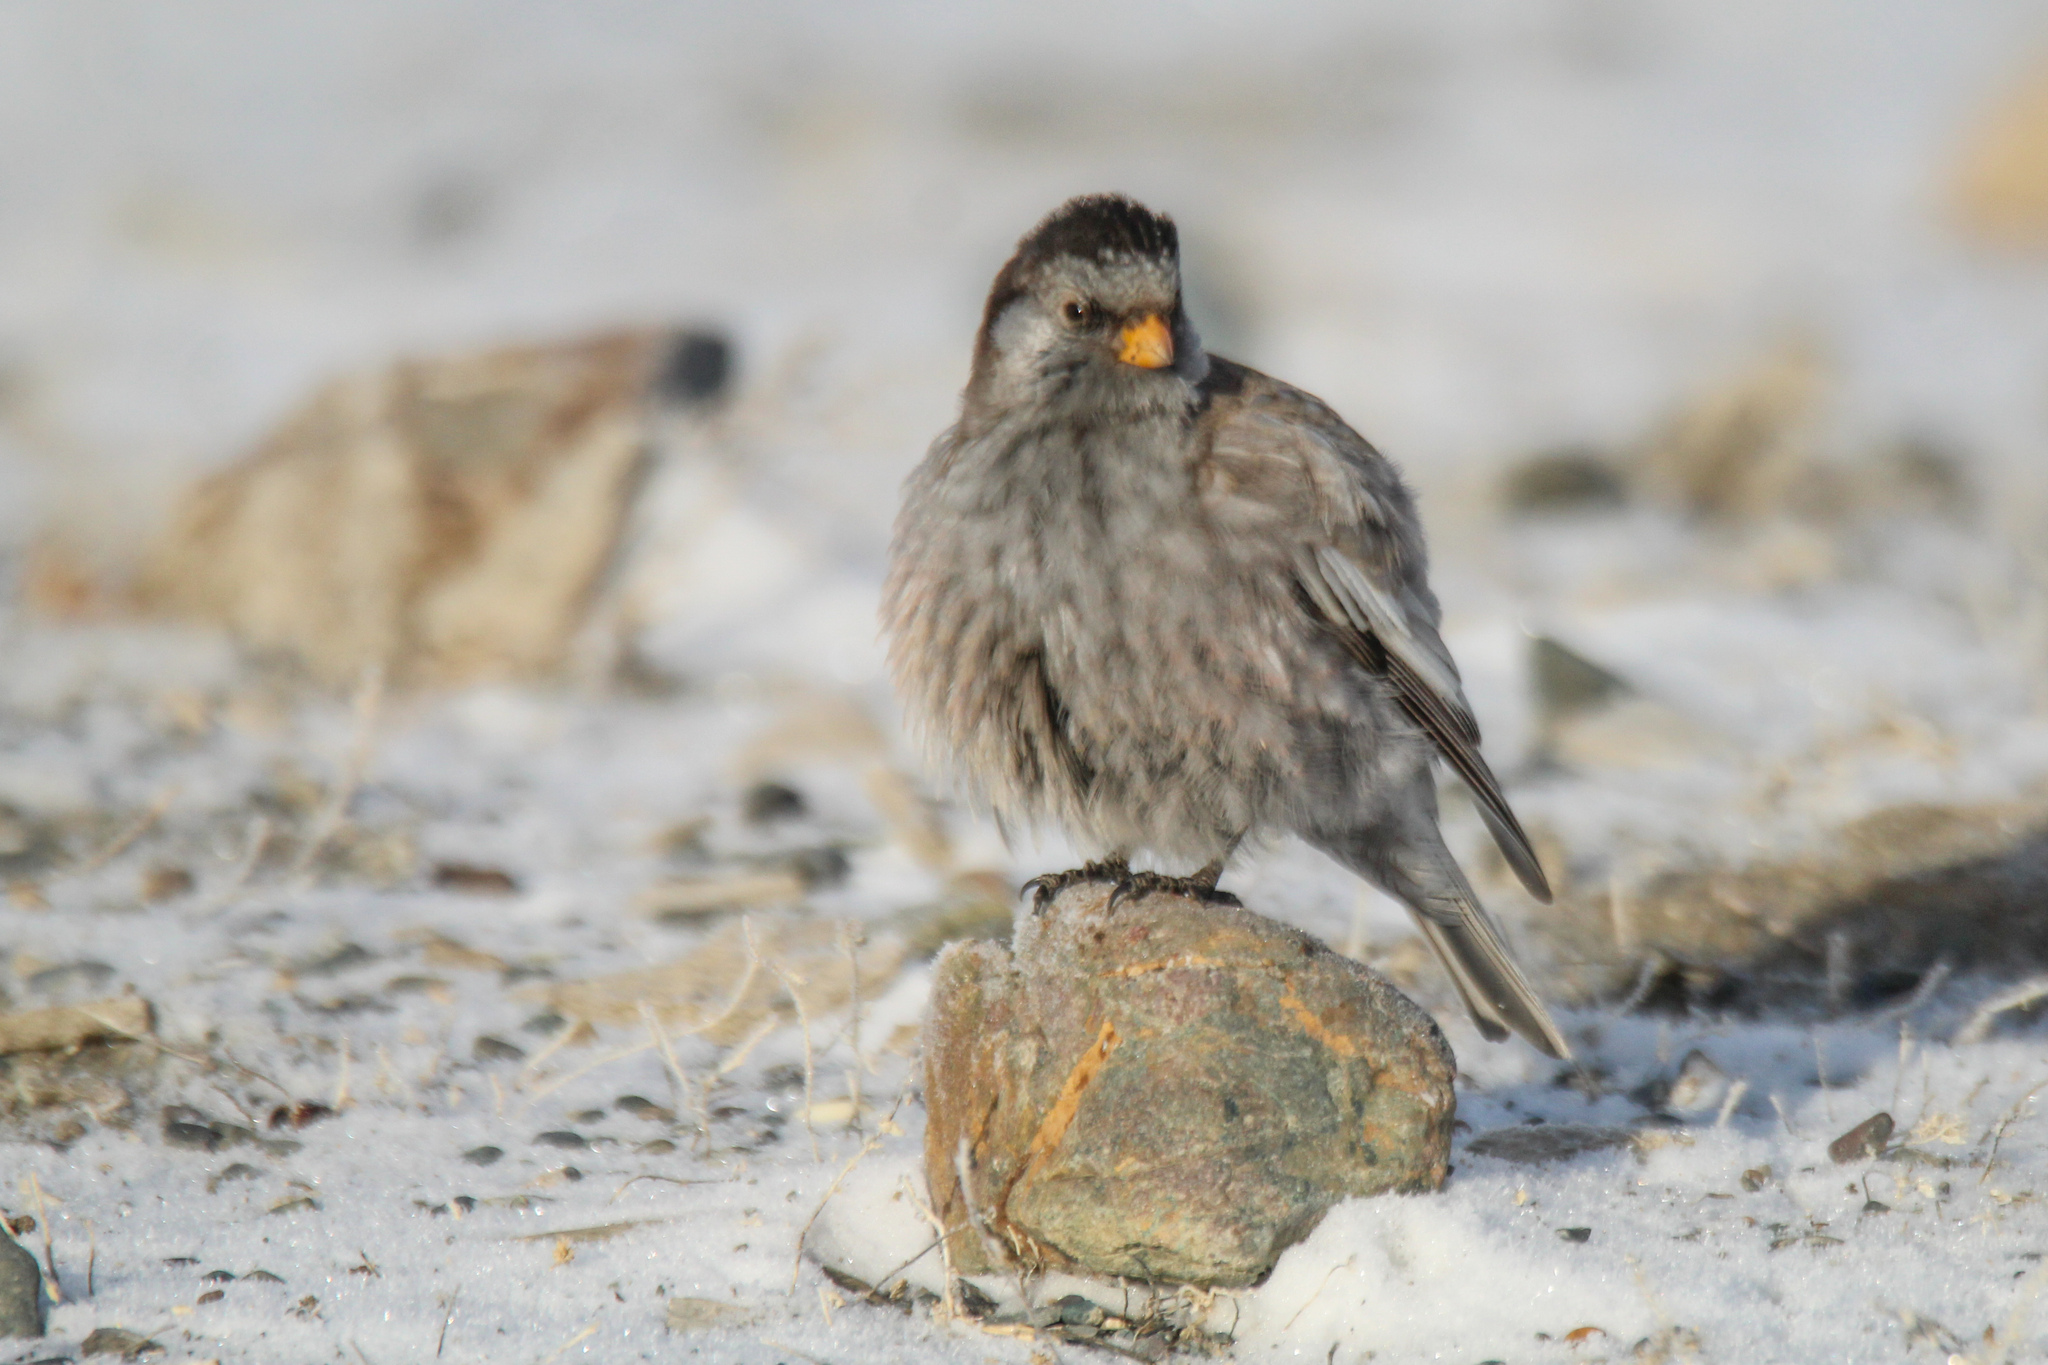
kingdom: Animalia
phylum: Chordata
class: Aves
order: Passeriformes
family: Fringillidae
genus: Leucosticte
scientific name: Leucosticte brandti
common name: Brandt's mountain finch
